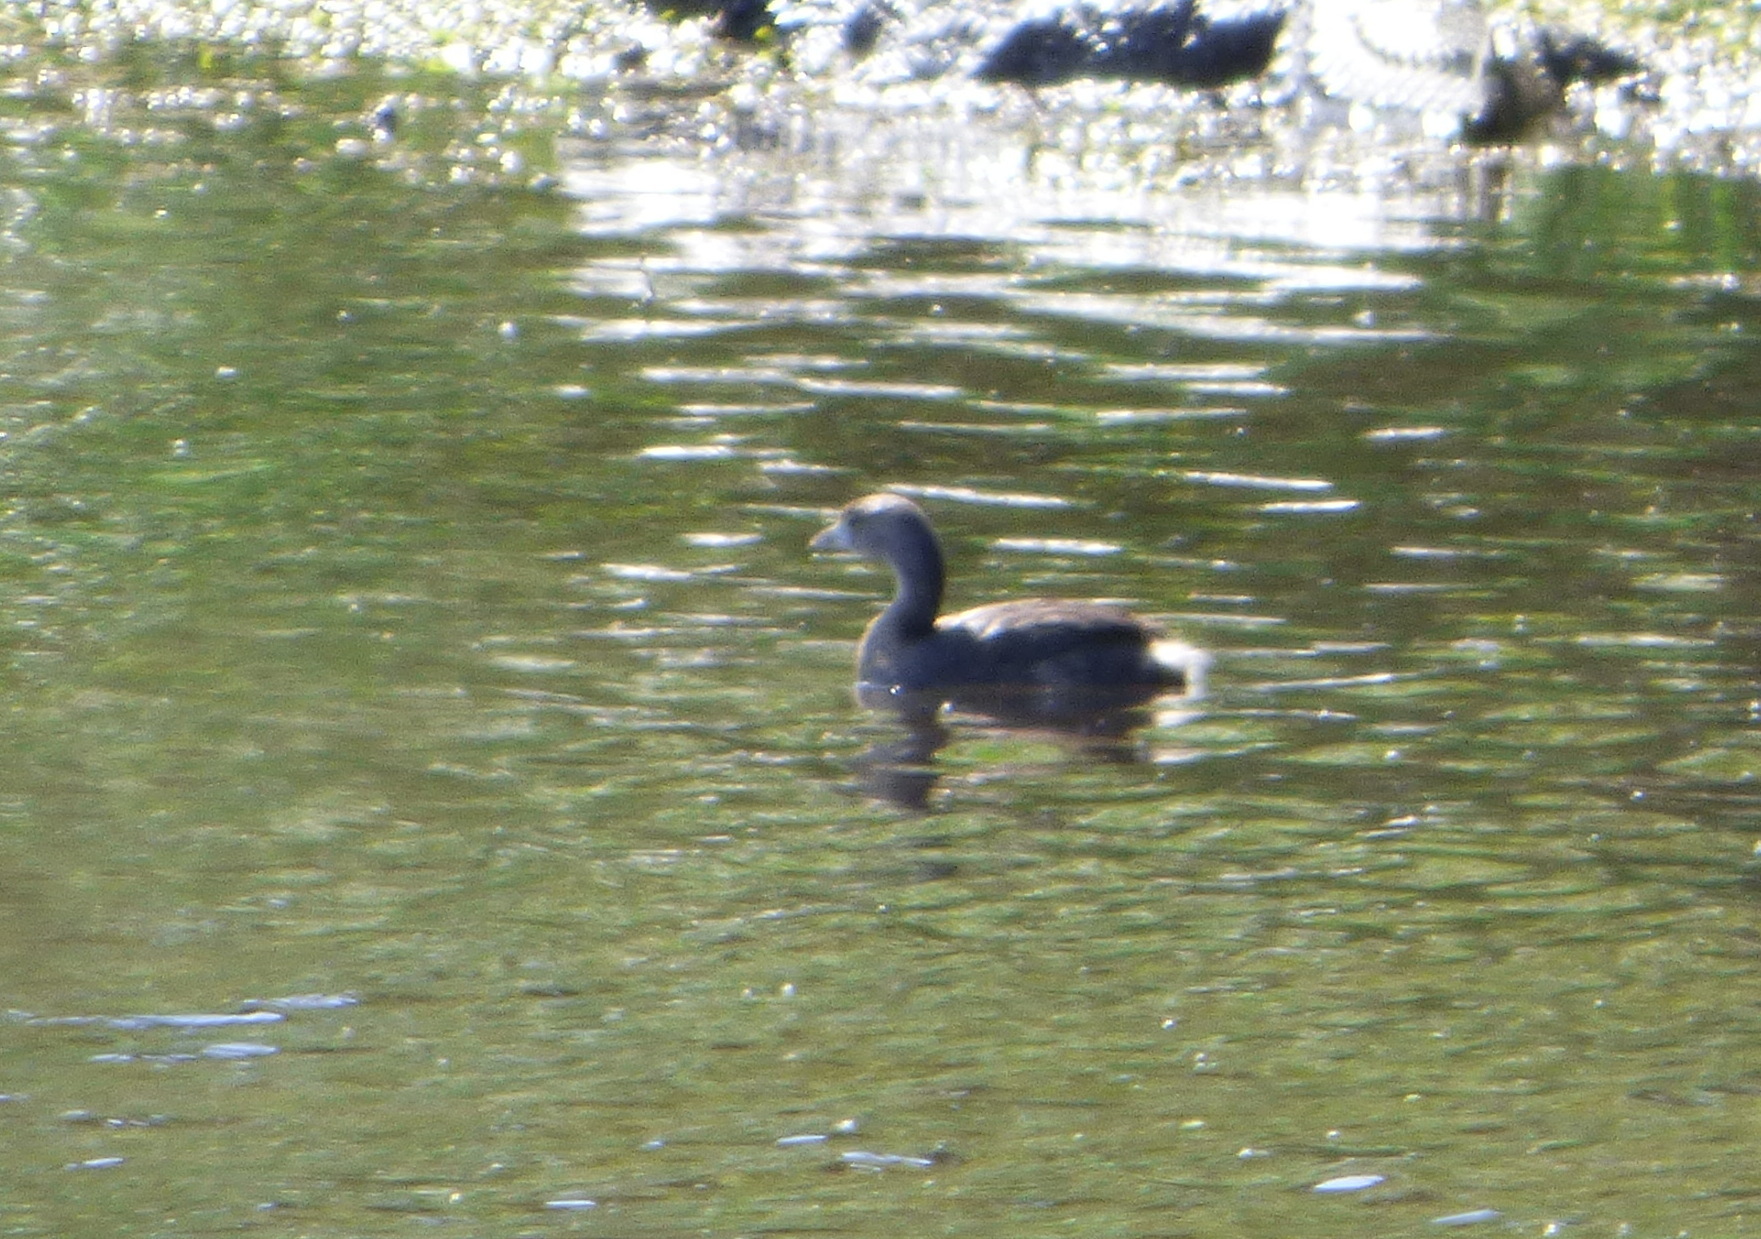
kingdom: Animalia
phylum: Chordata
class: Aves
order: Podicipediformes
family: Podicipedidae
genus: Podilymbus
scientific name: Podilymbus podiceps
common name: Pied-billed grebe
